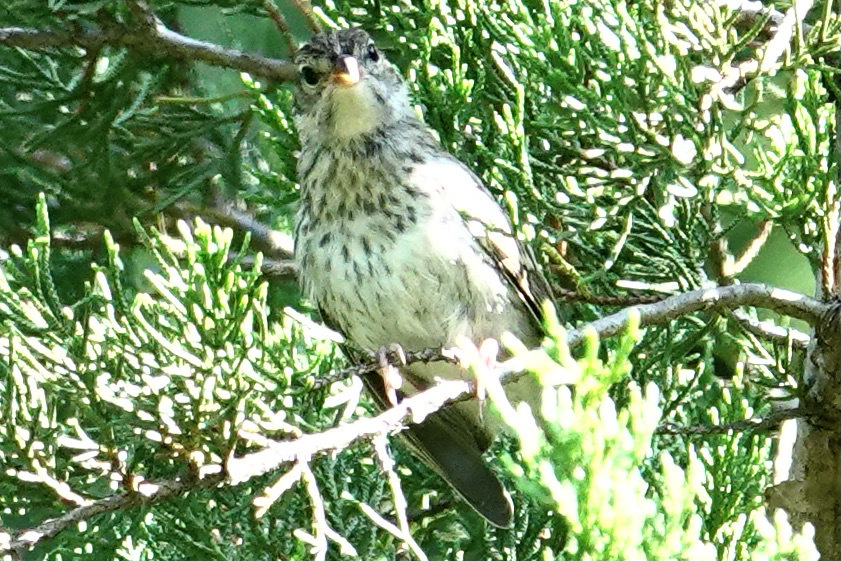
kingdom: Animalia
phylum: Chordata
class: Aves
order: Passeriformes
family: Passerellidae
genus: Spizella
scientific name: Spizella passerina
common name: Chipping sparrow
